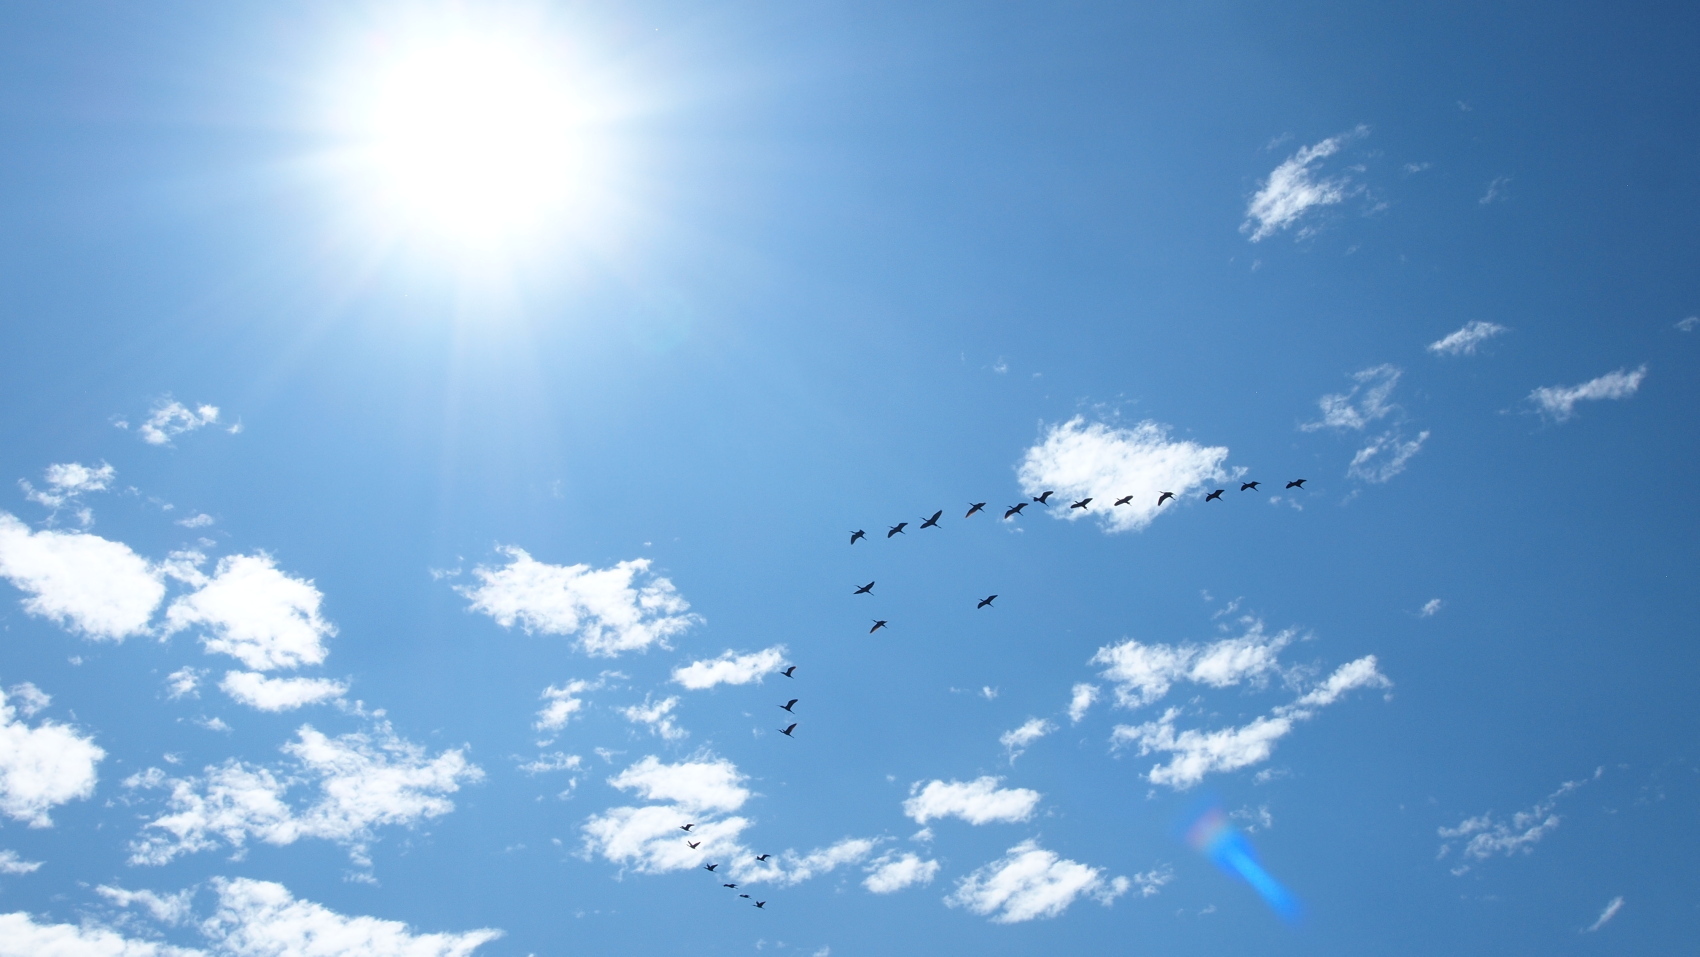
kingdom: Animalia
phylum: Chordata
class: Aves
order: Pelecaniformes
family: Threskiornithidae
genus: Plegadis
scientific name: Plegadis chihi
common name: White-faced ibis
